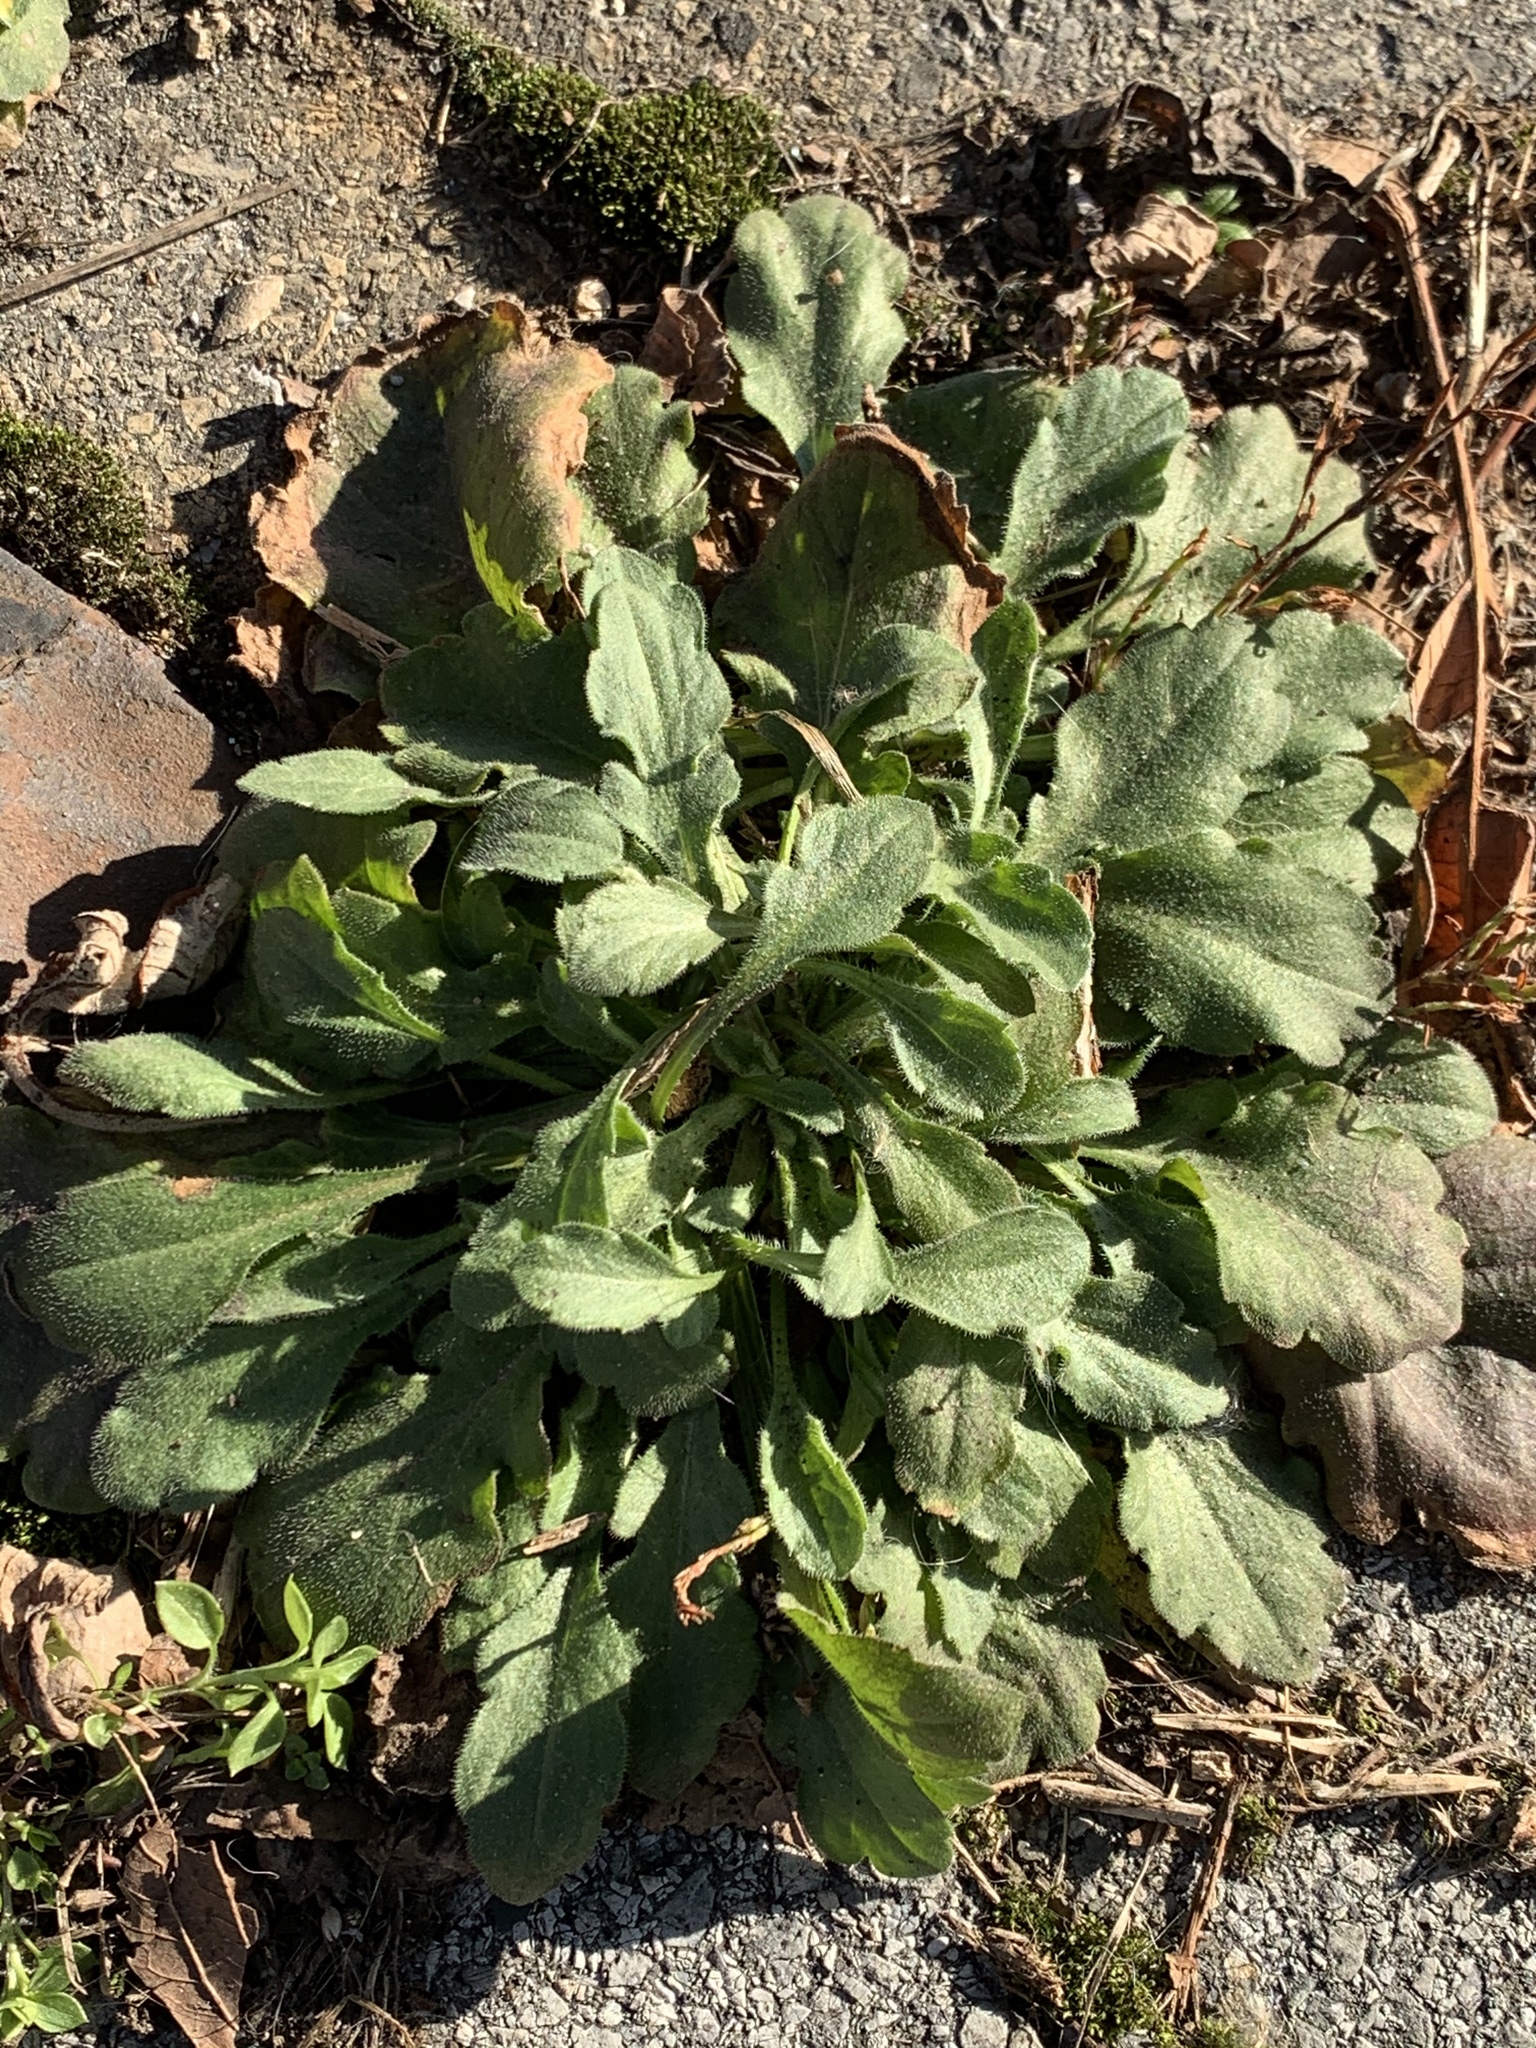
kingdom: Plantae
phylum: Tracheophyta
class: Magnoliopsida
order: Asterales
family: Asteraceae
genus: Erigeron
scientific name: Erigeron canadensis
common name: Canadian fleabane
